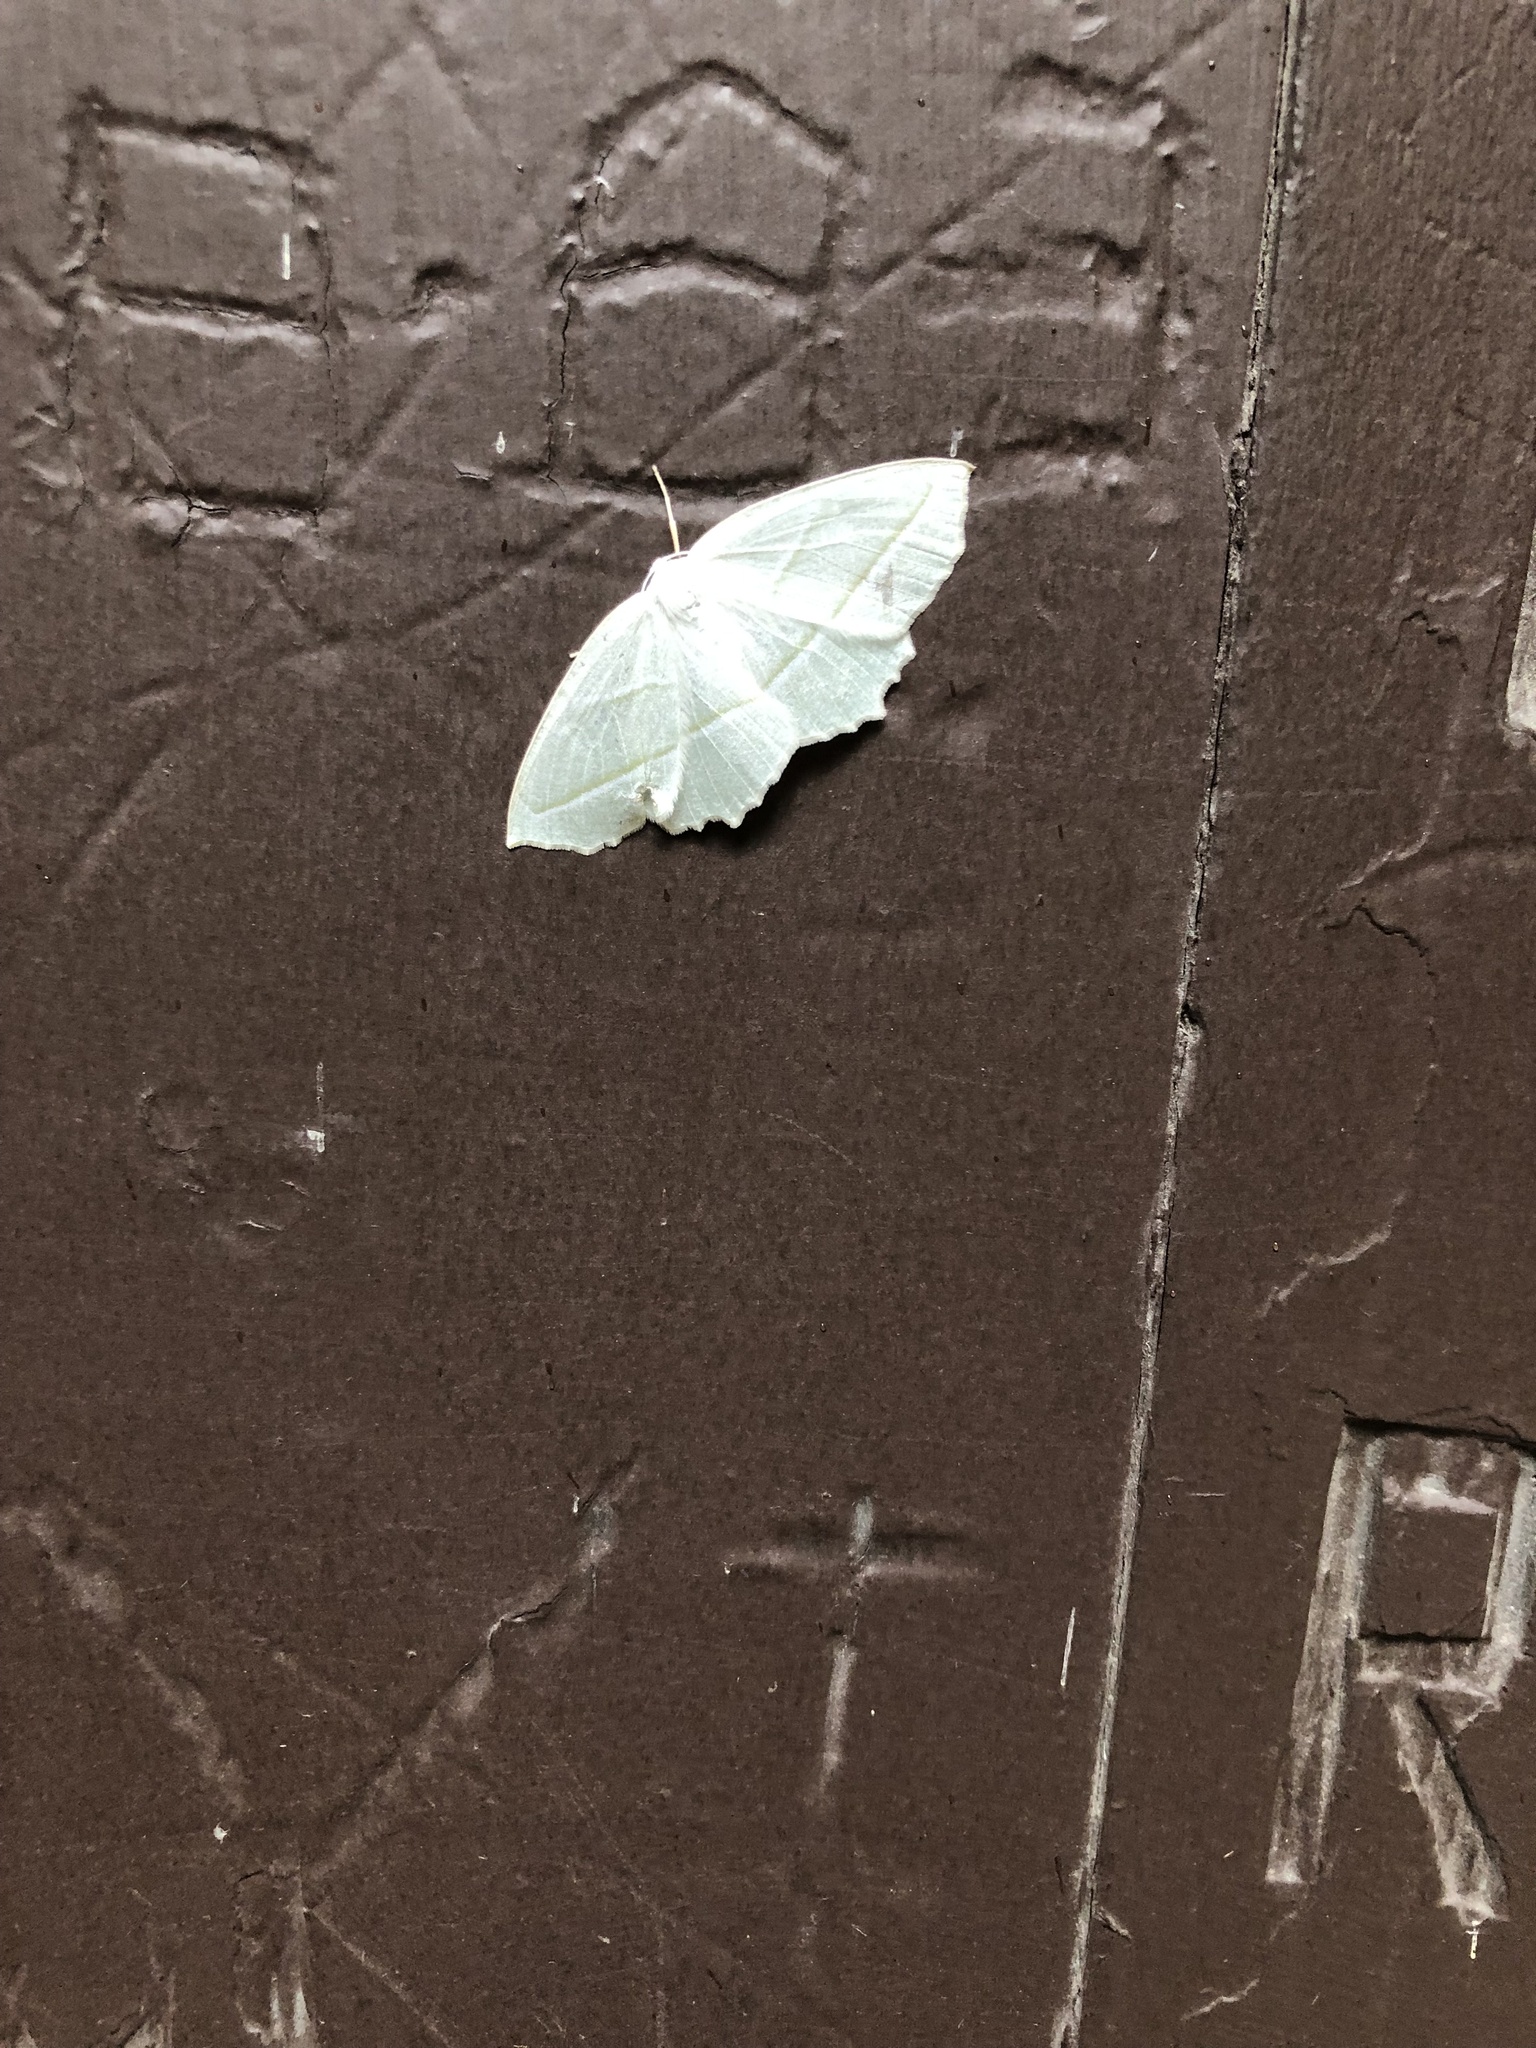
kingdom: Animalia
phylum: Arthropoda
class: Insecta
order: Lepidoptera
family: Geometridae
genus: Campaea
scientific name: Campaea perlata
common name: Fringed looper
